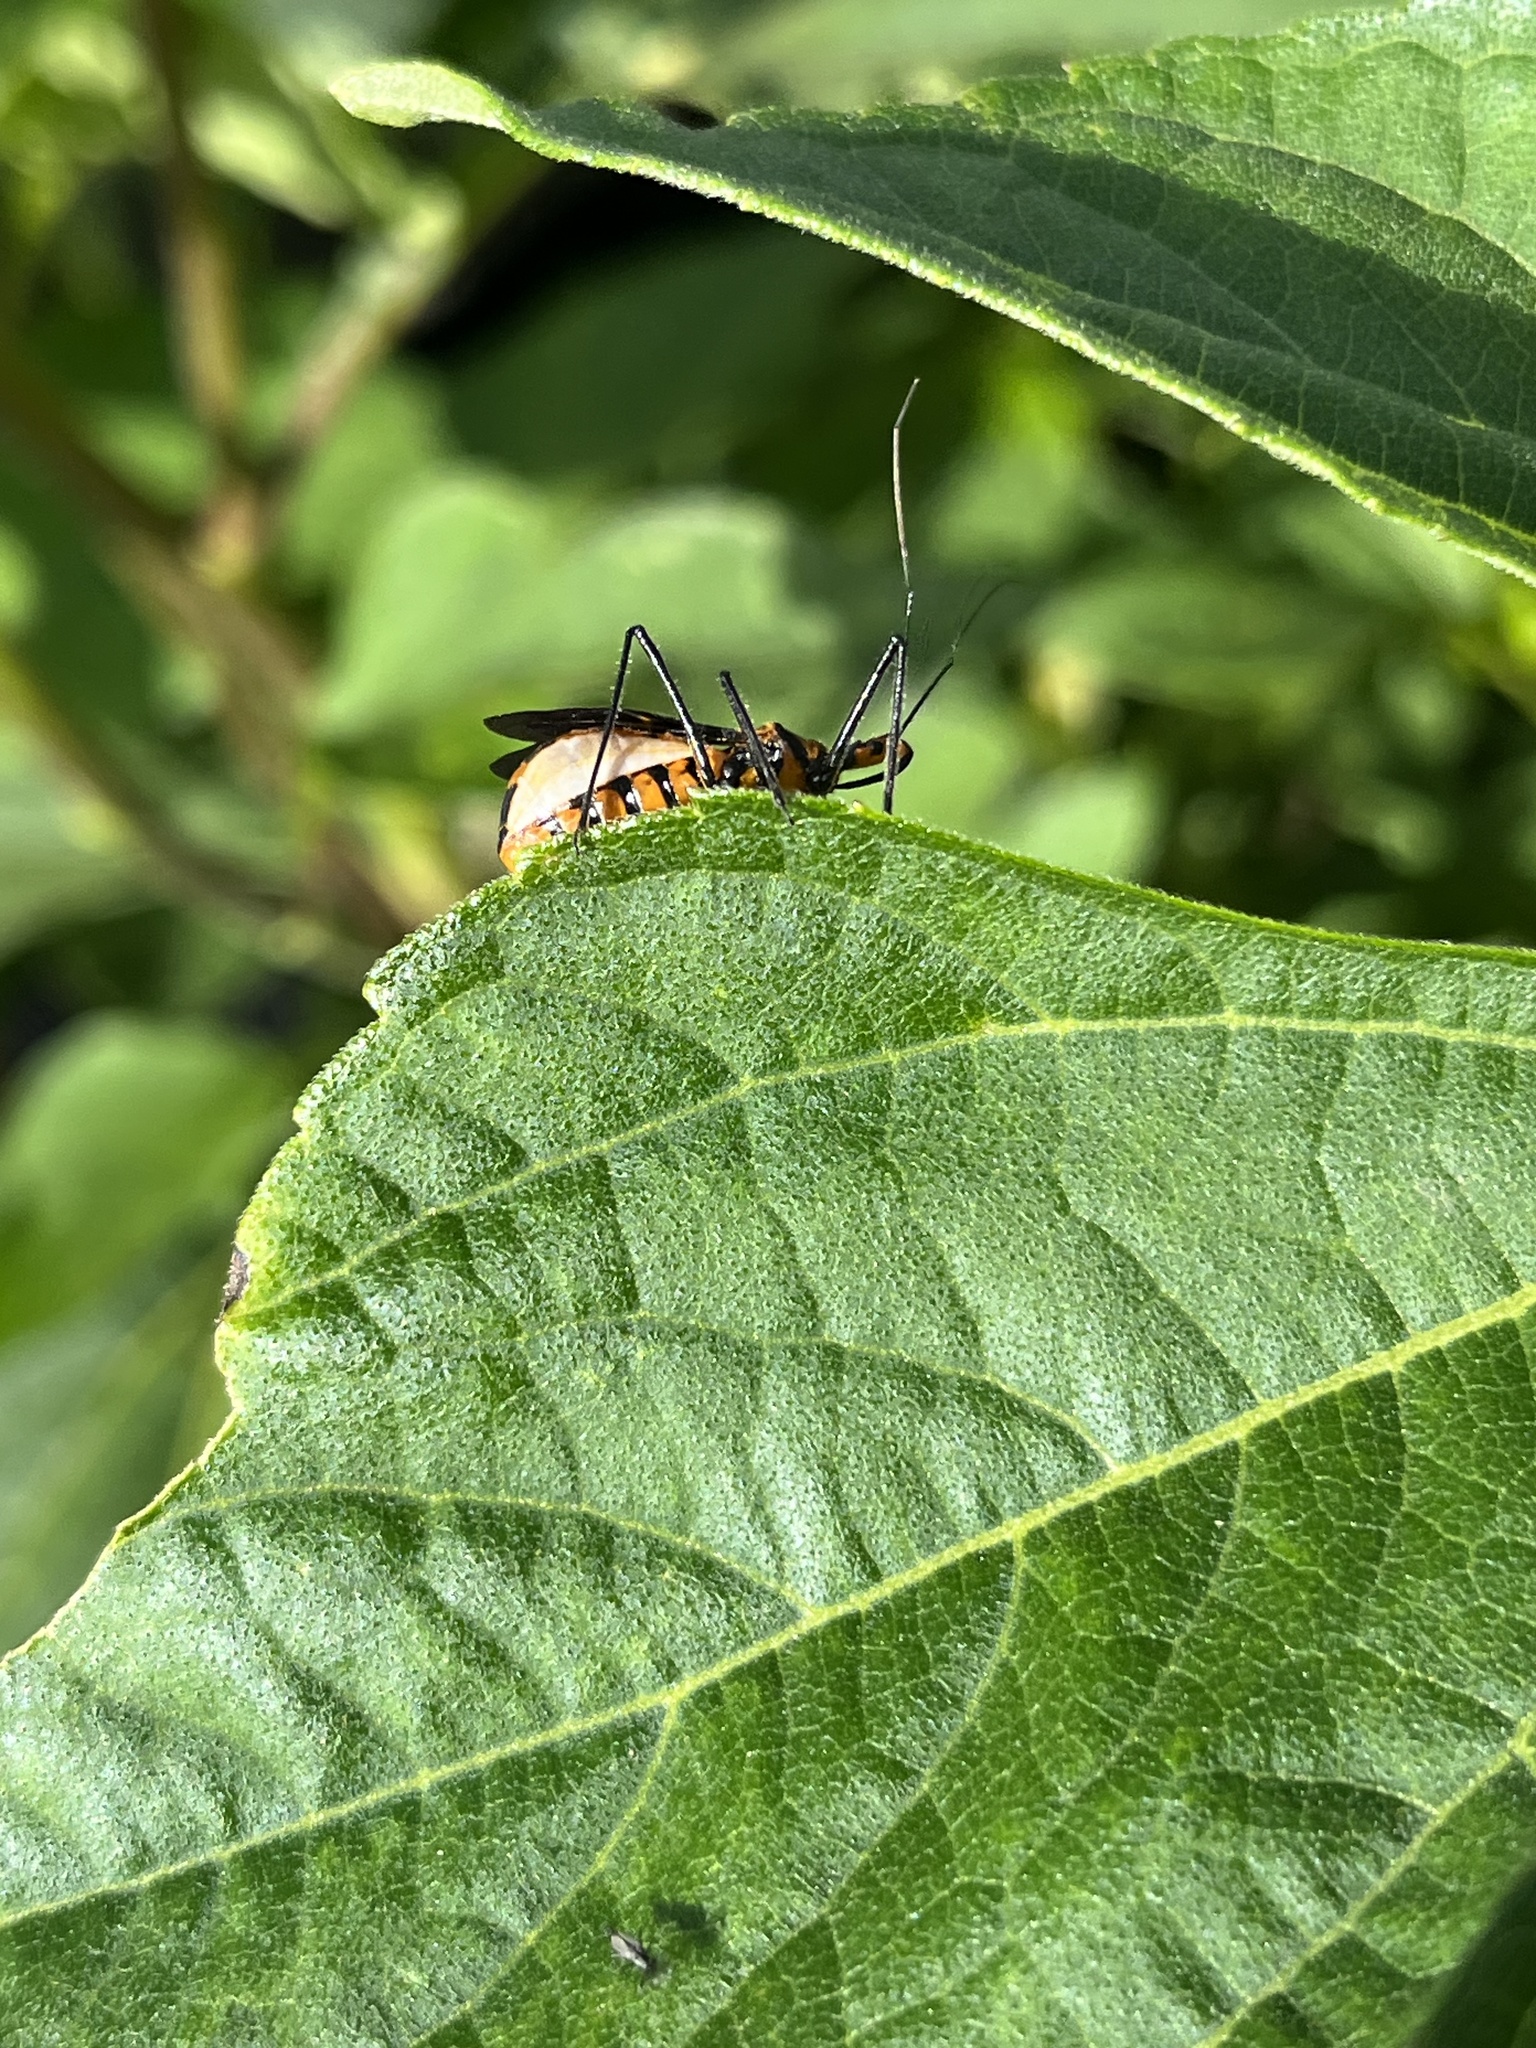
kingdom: Animalia
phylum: Arthropoda
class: Insecta
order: Hemiptera
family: Reduviidae
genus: Zelus
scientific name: Zelus longipes
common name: Milkweed assassin bug
